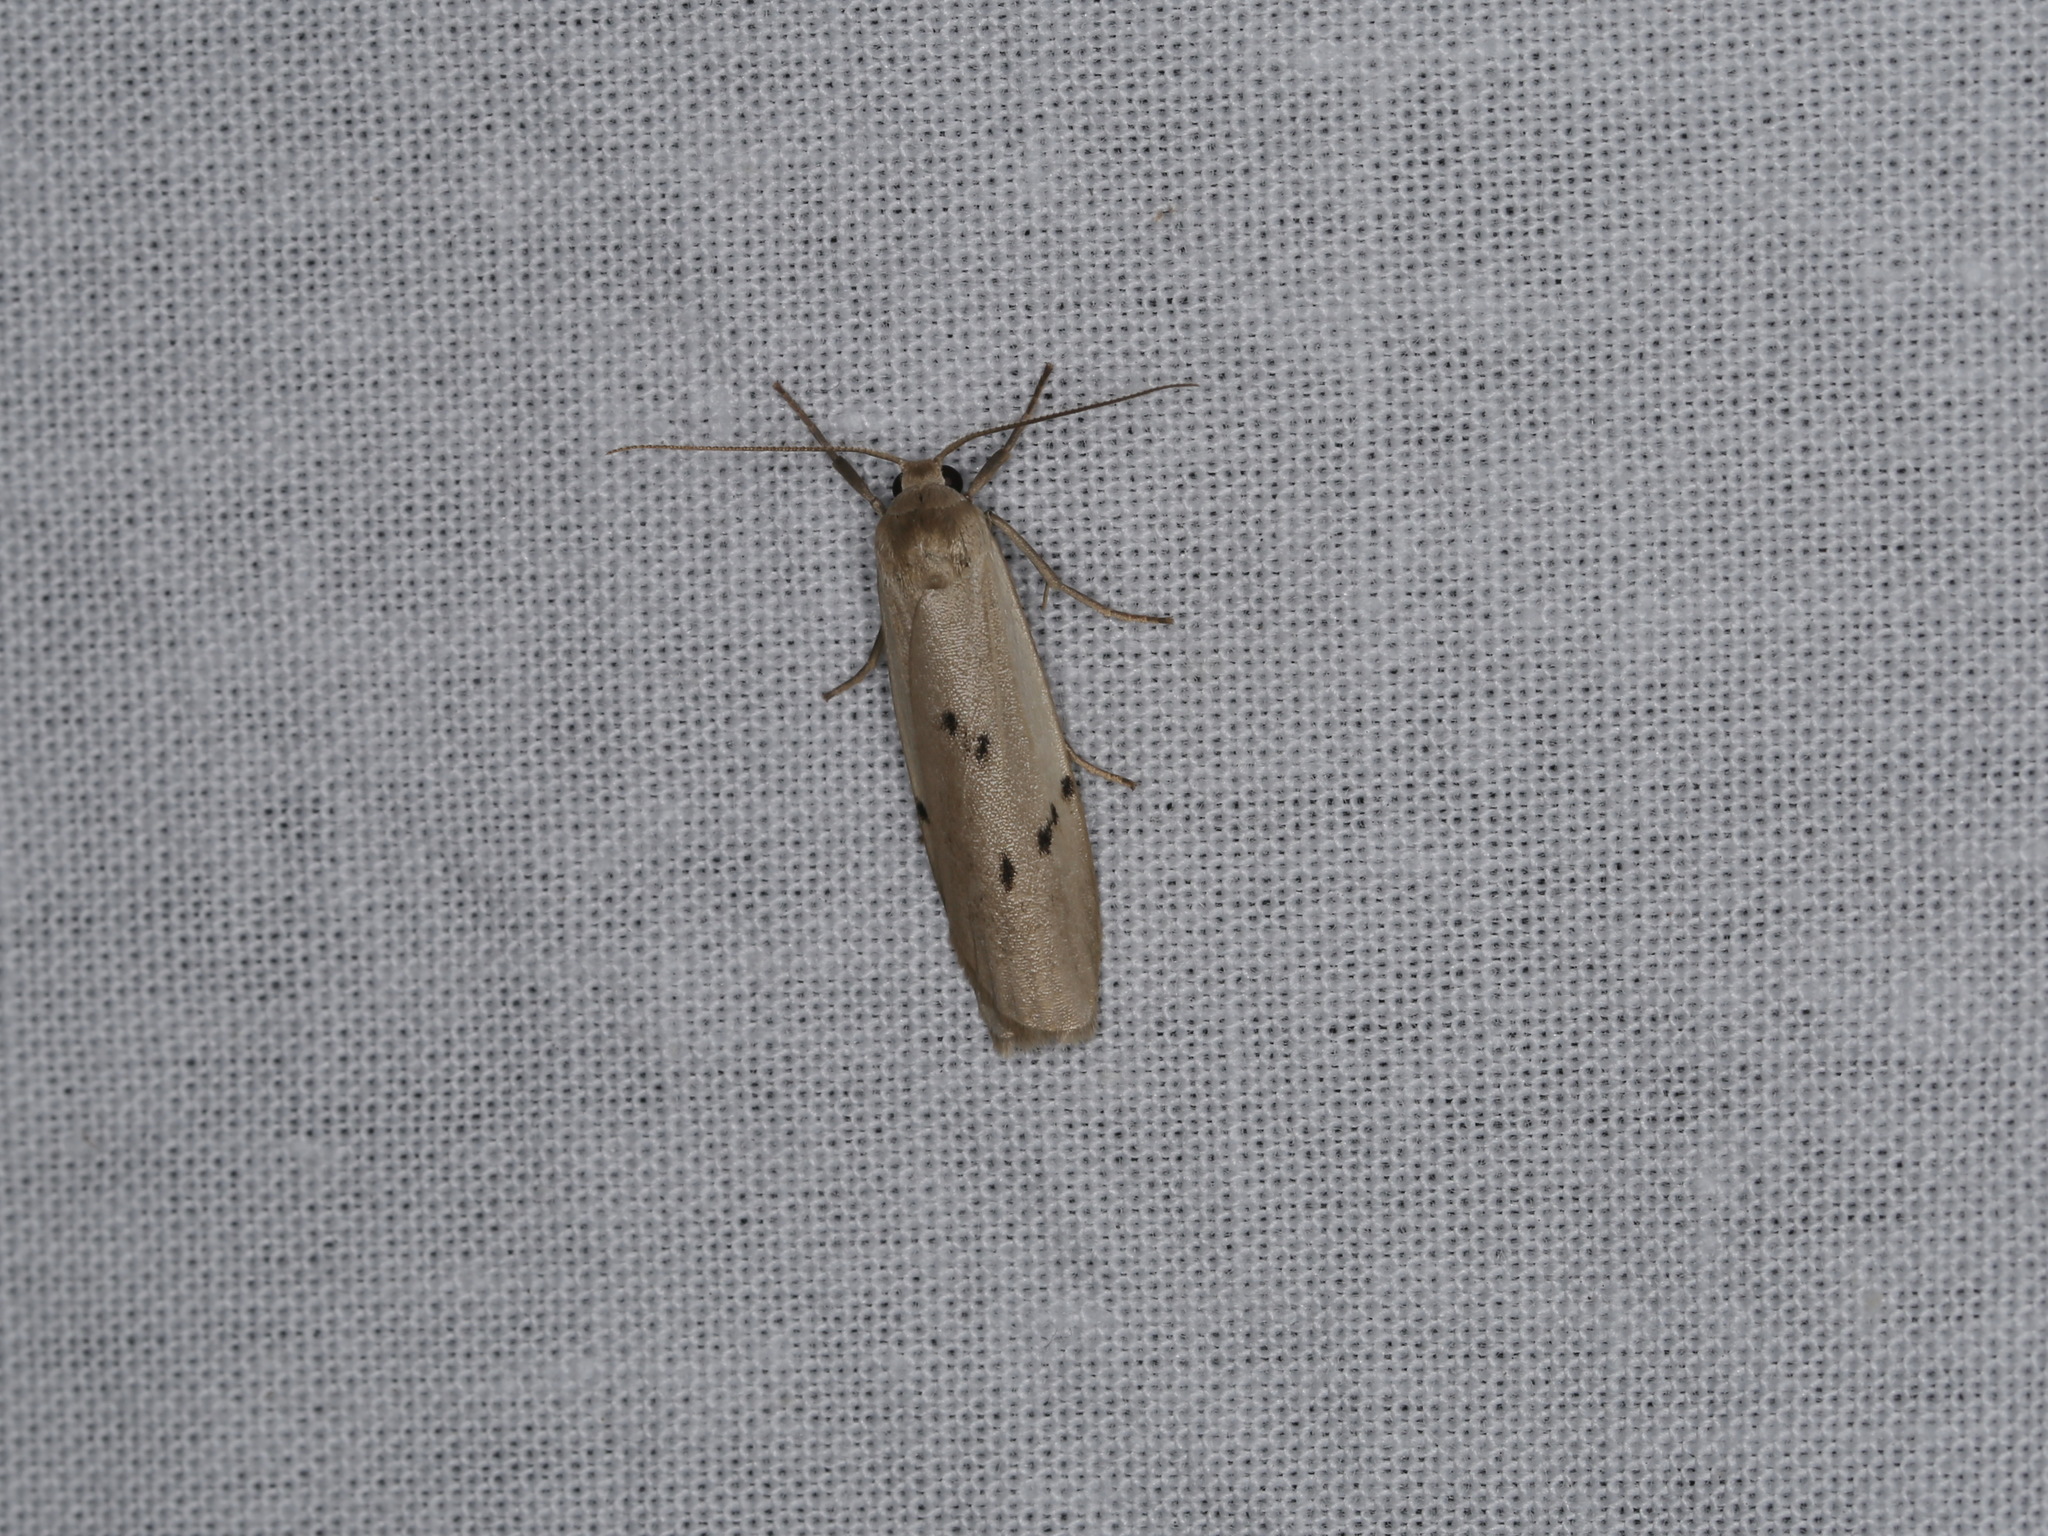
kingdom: Animalia
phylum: Arthropoda
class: Insecta
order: Lepidoptera
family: Erebidae
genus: Pelosia
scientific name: Pelosia muscerda
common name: Dotted footman
